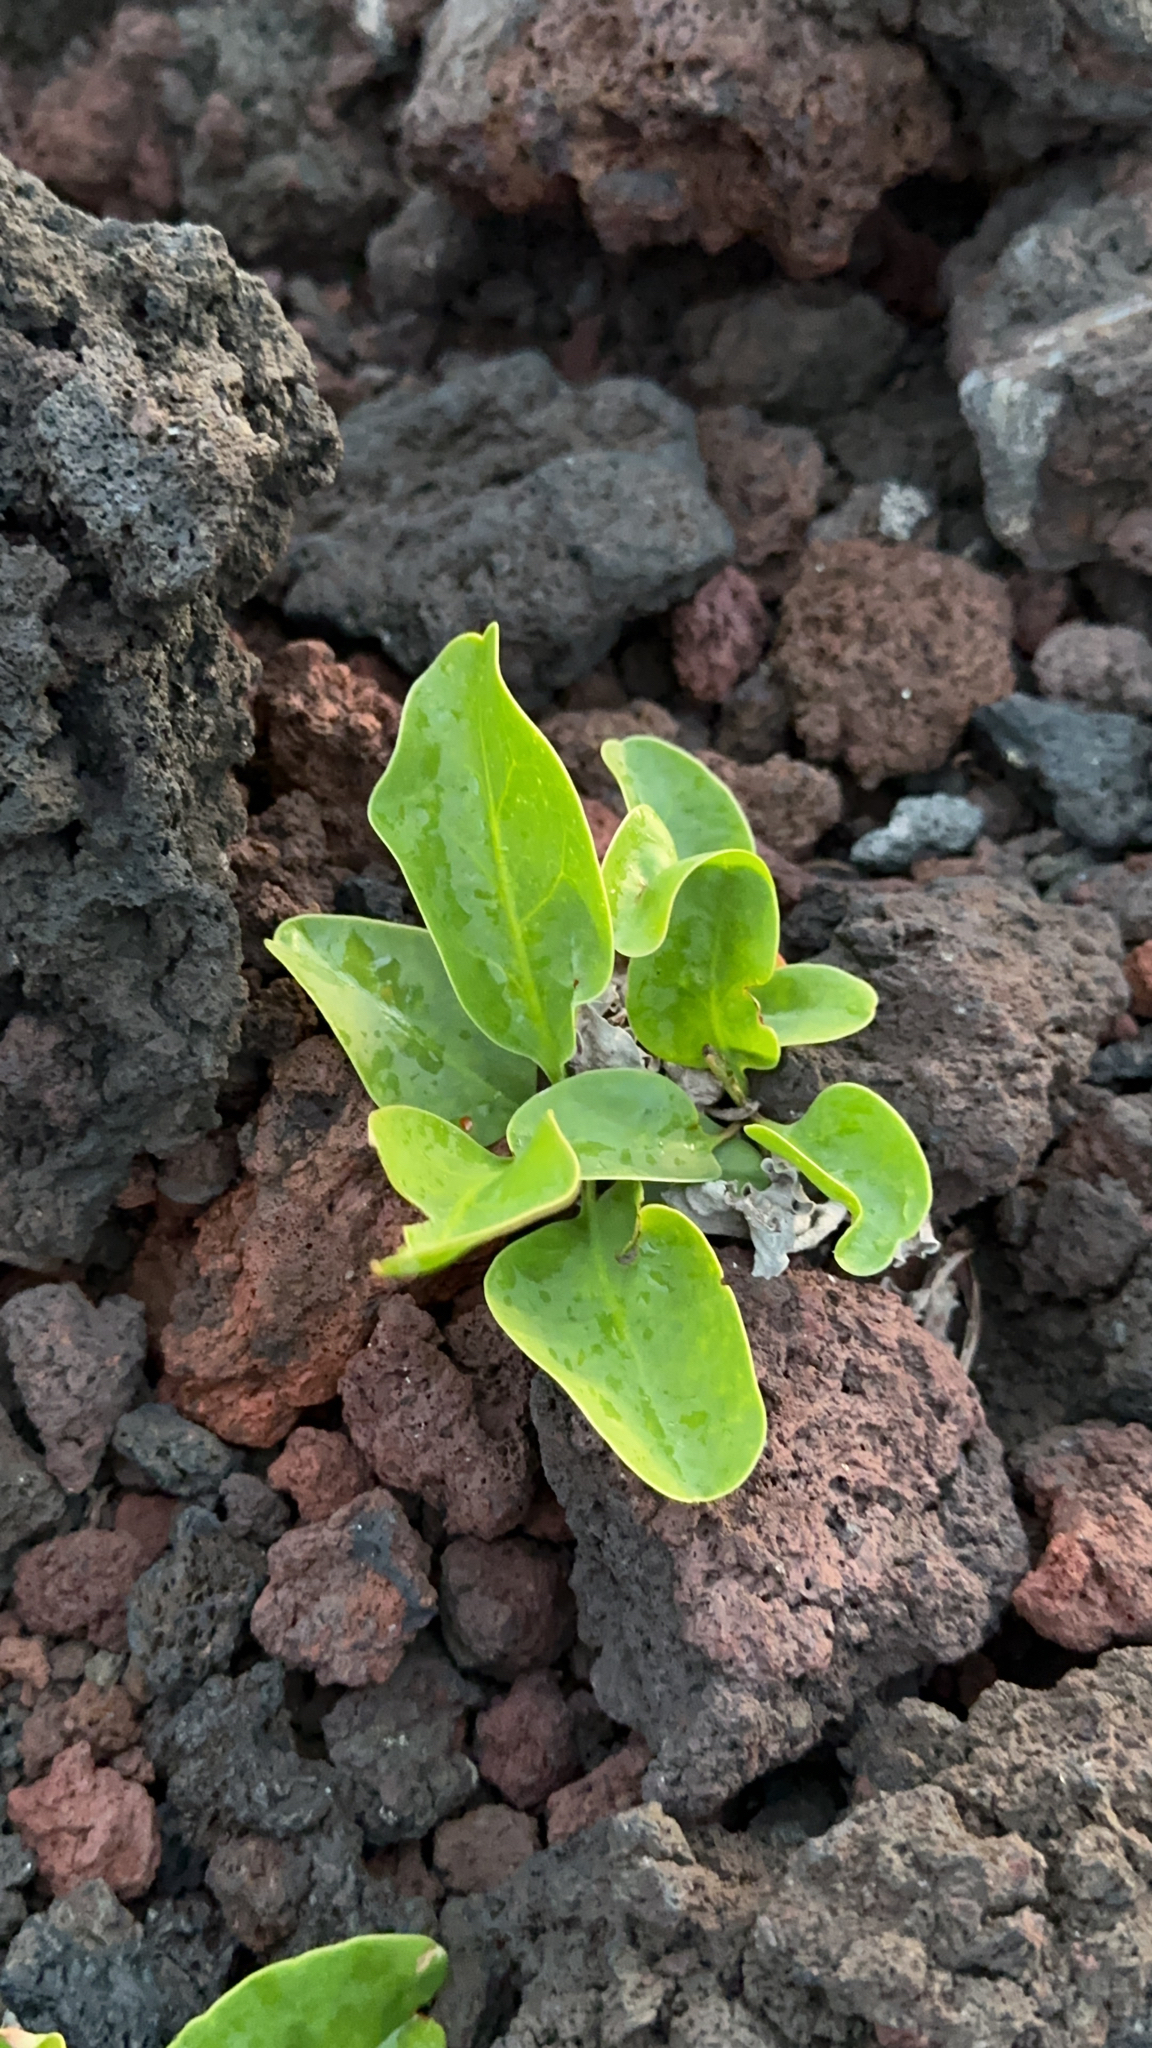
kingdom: Plantae
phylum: Tracheophyta
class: Magnoliopsida
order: Caryophyllales
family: Plumbaginaceae
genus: Limonium
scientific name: Limonium eduardi-diasii
